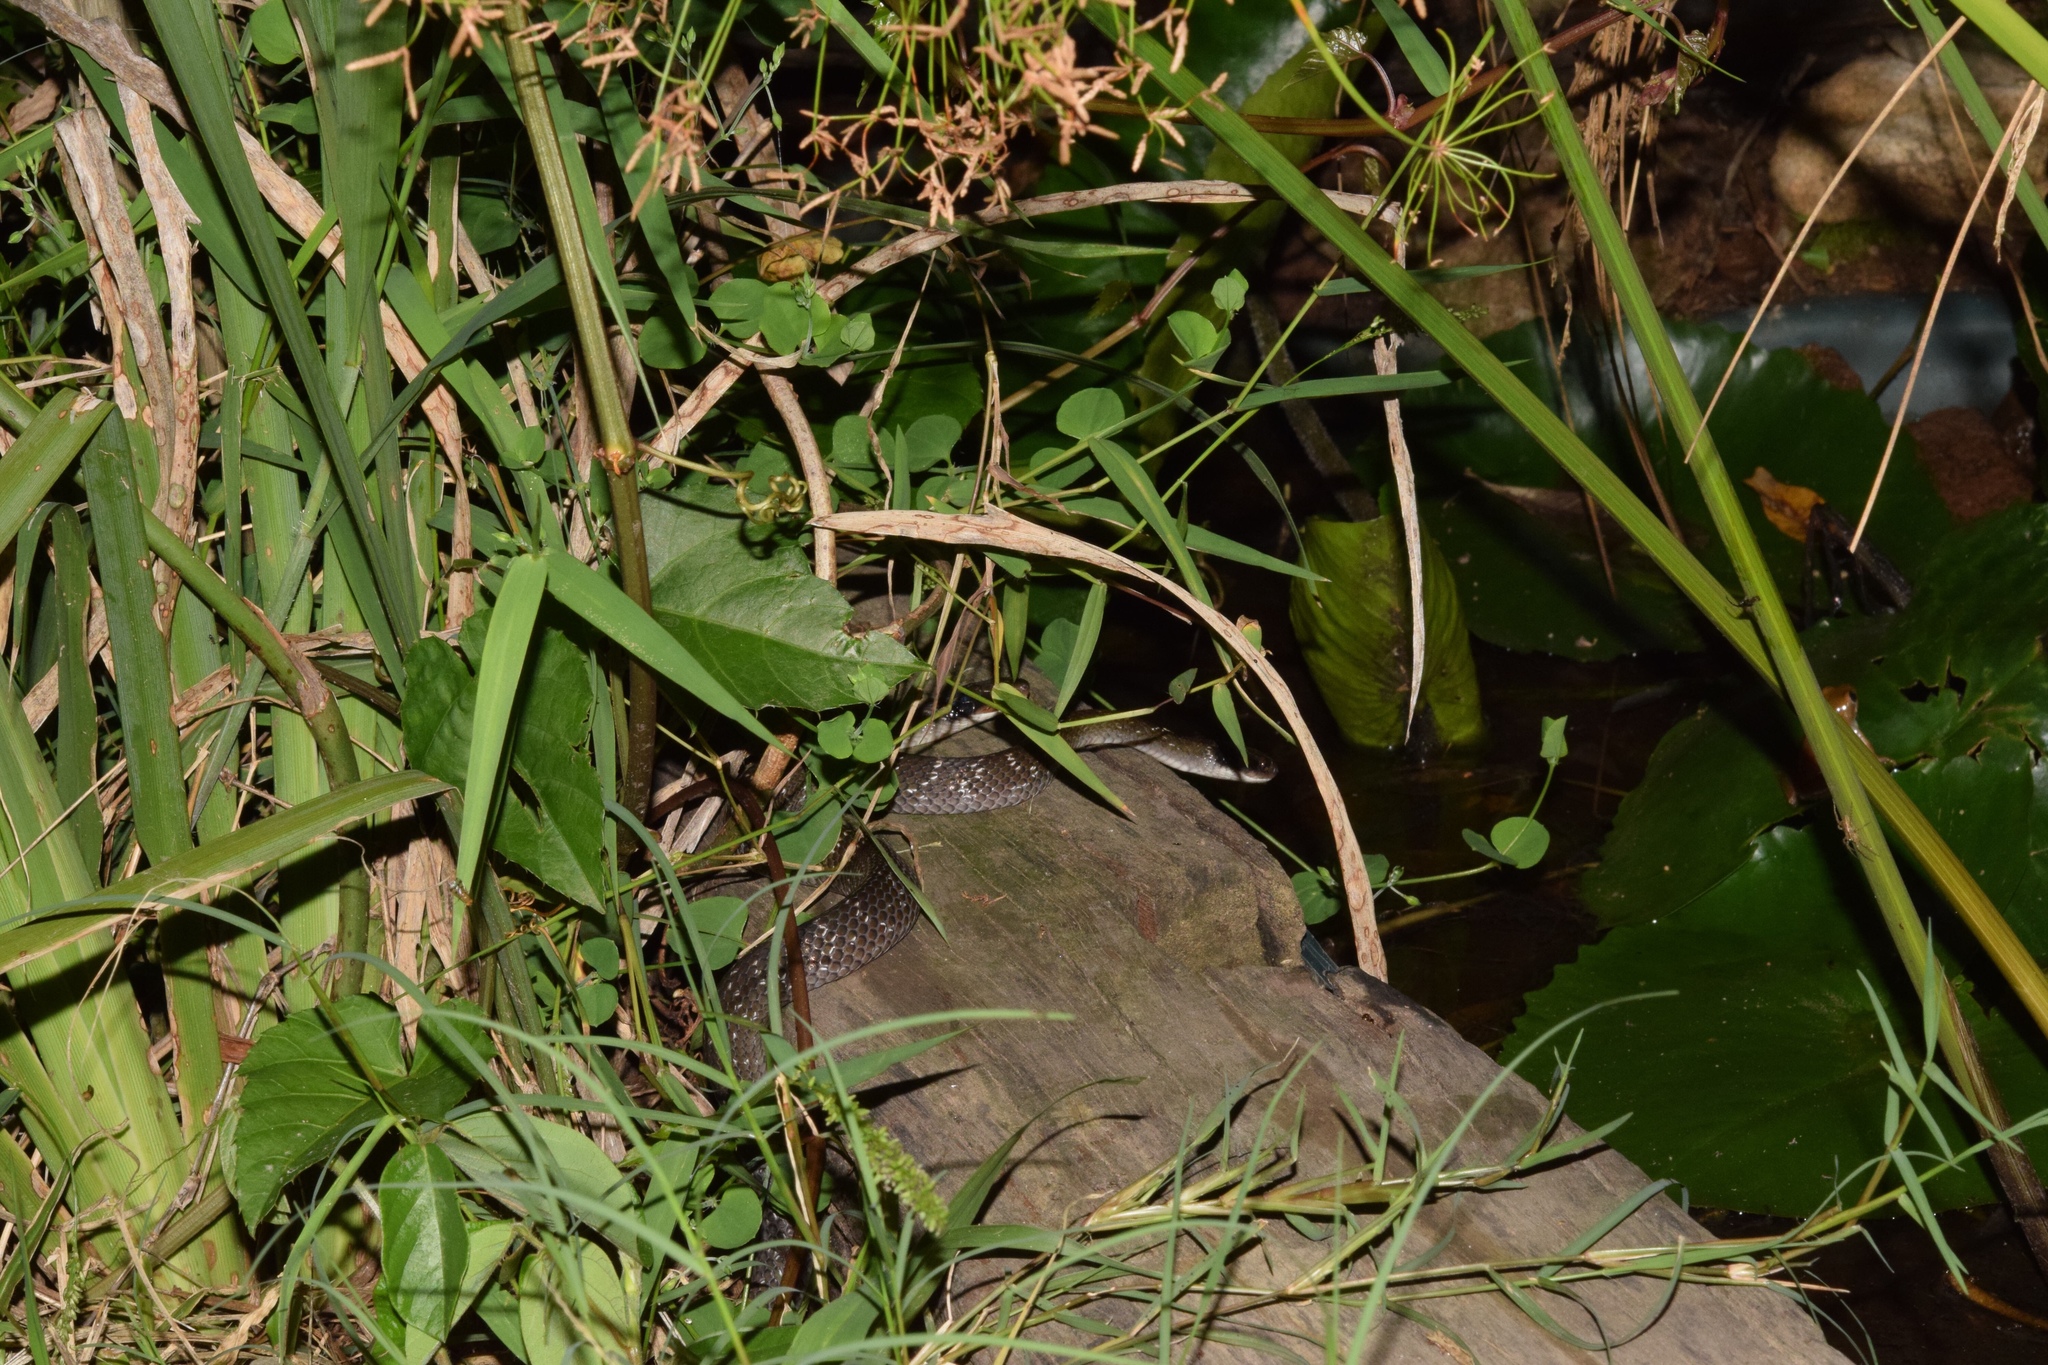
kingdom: Animalia
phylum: Chordata
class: Squamata
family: Colubridae
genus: Crotaphopeltis
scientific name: Crotaphopeltis hotamboeia
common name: Red-lipped snake
